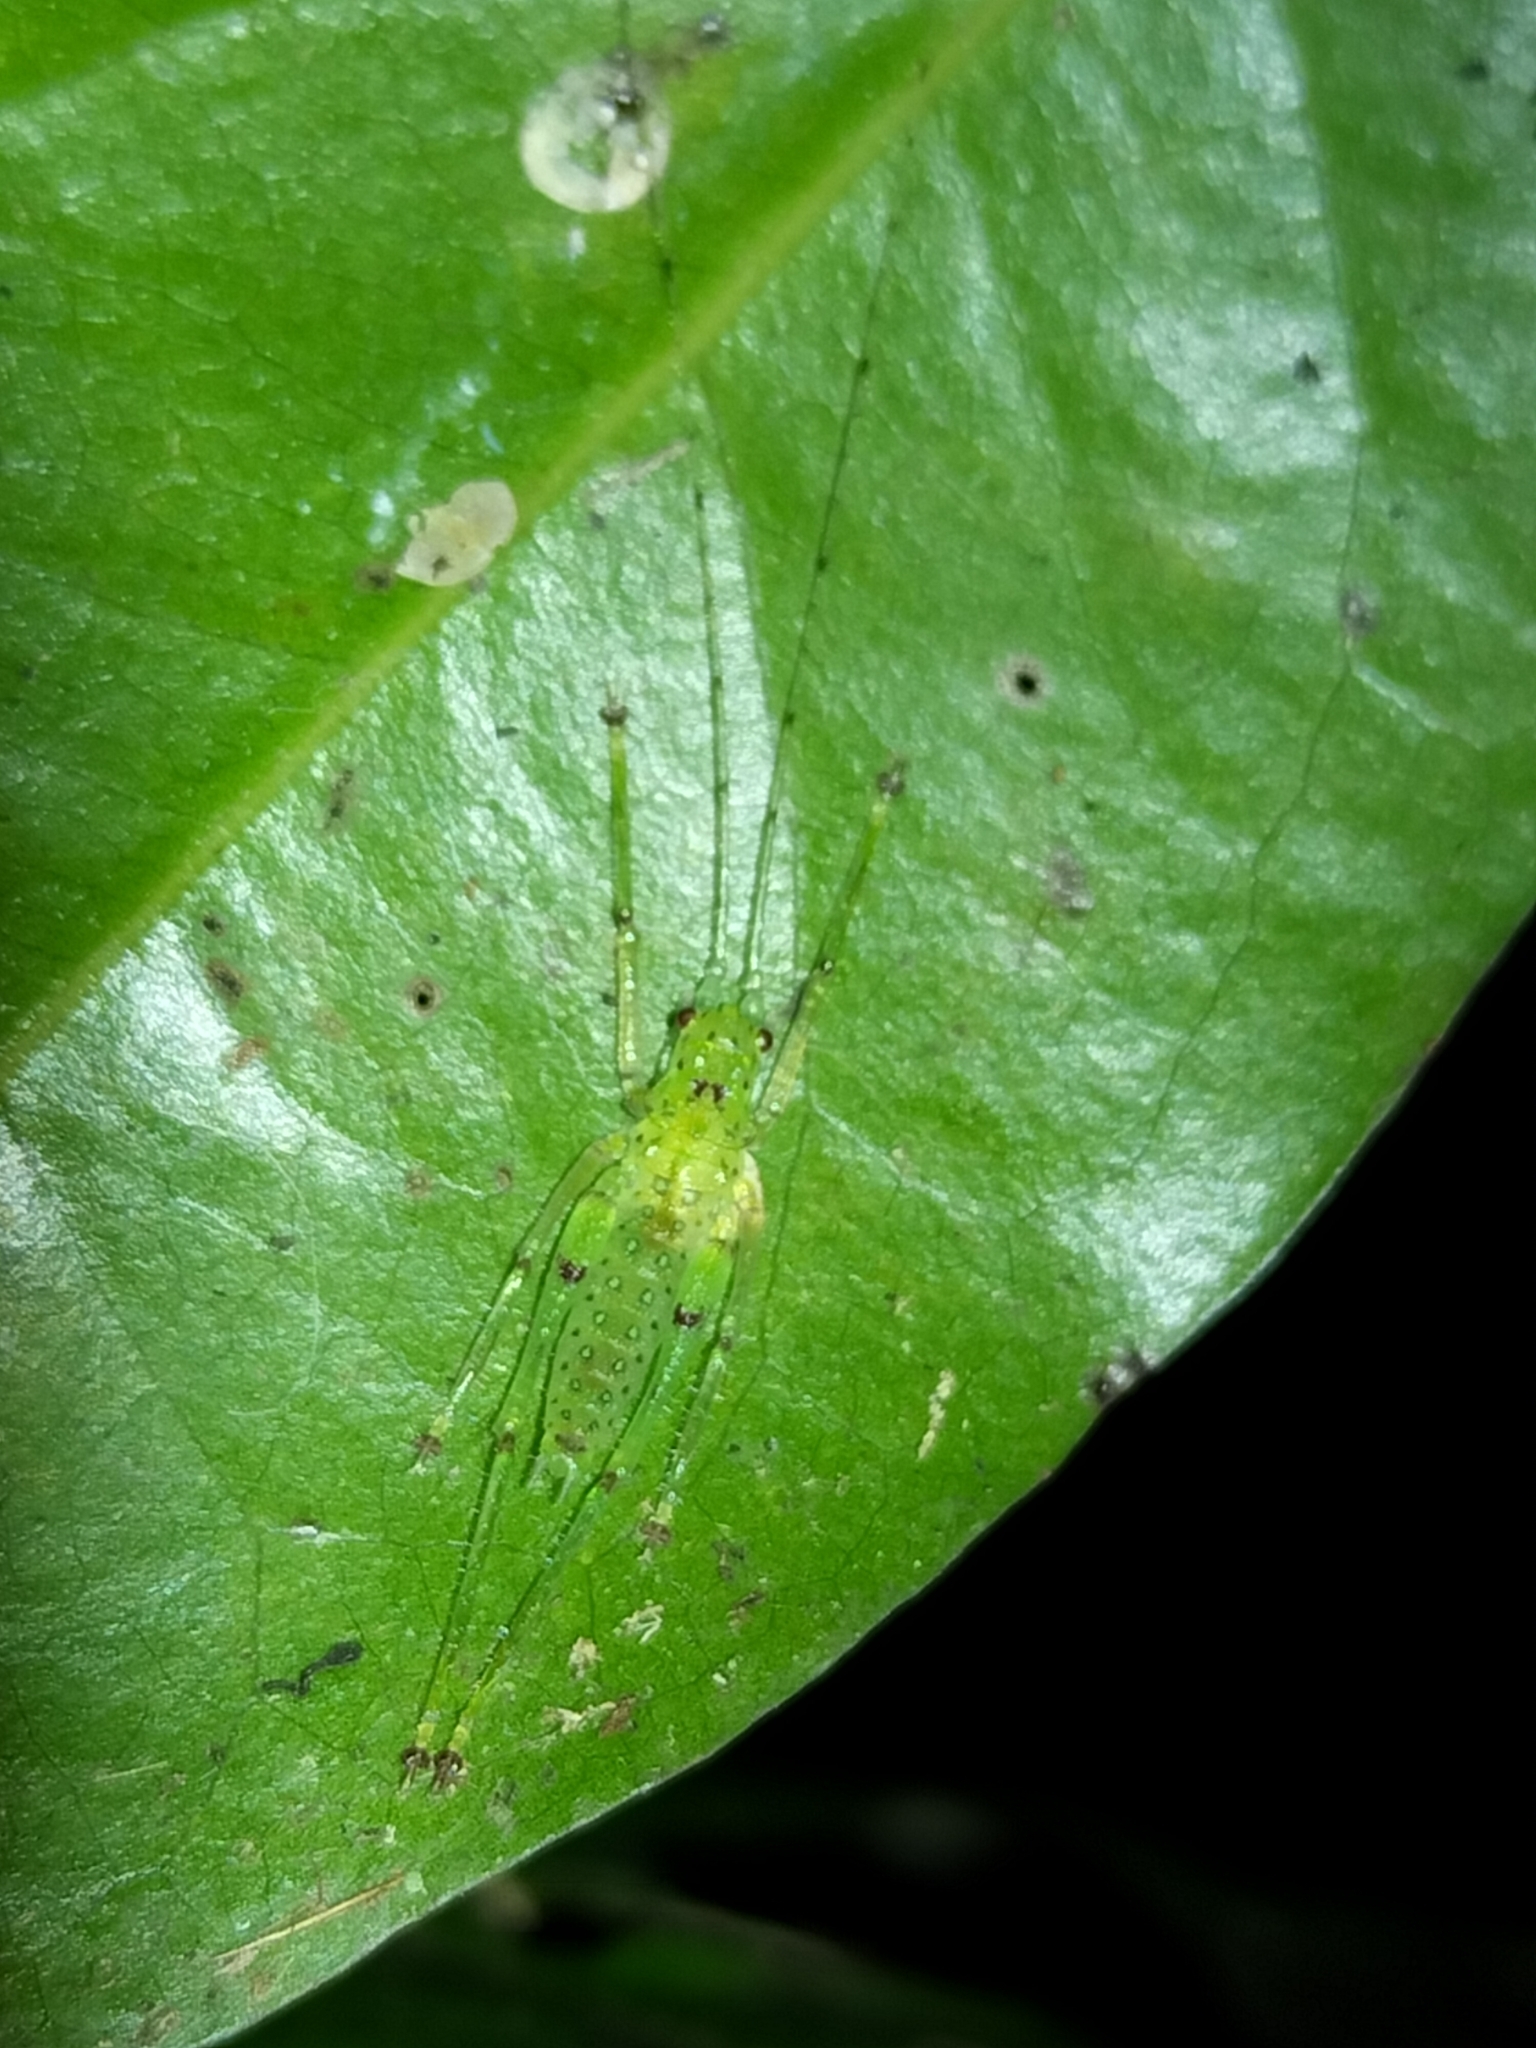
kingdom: Animalia
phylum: Arthropoda
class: Insecta
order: Orthoptera
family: Tettigoniidae
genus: Miniagraecia
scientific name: Miniagraecia milyali
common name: Tiny forest green katydid
